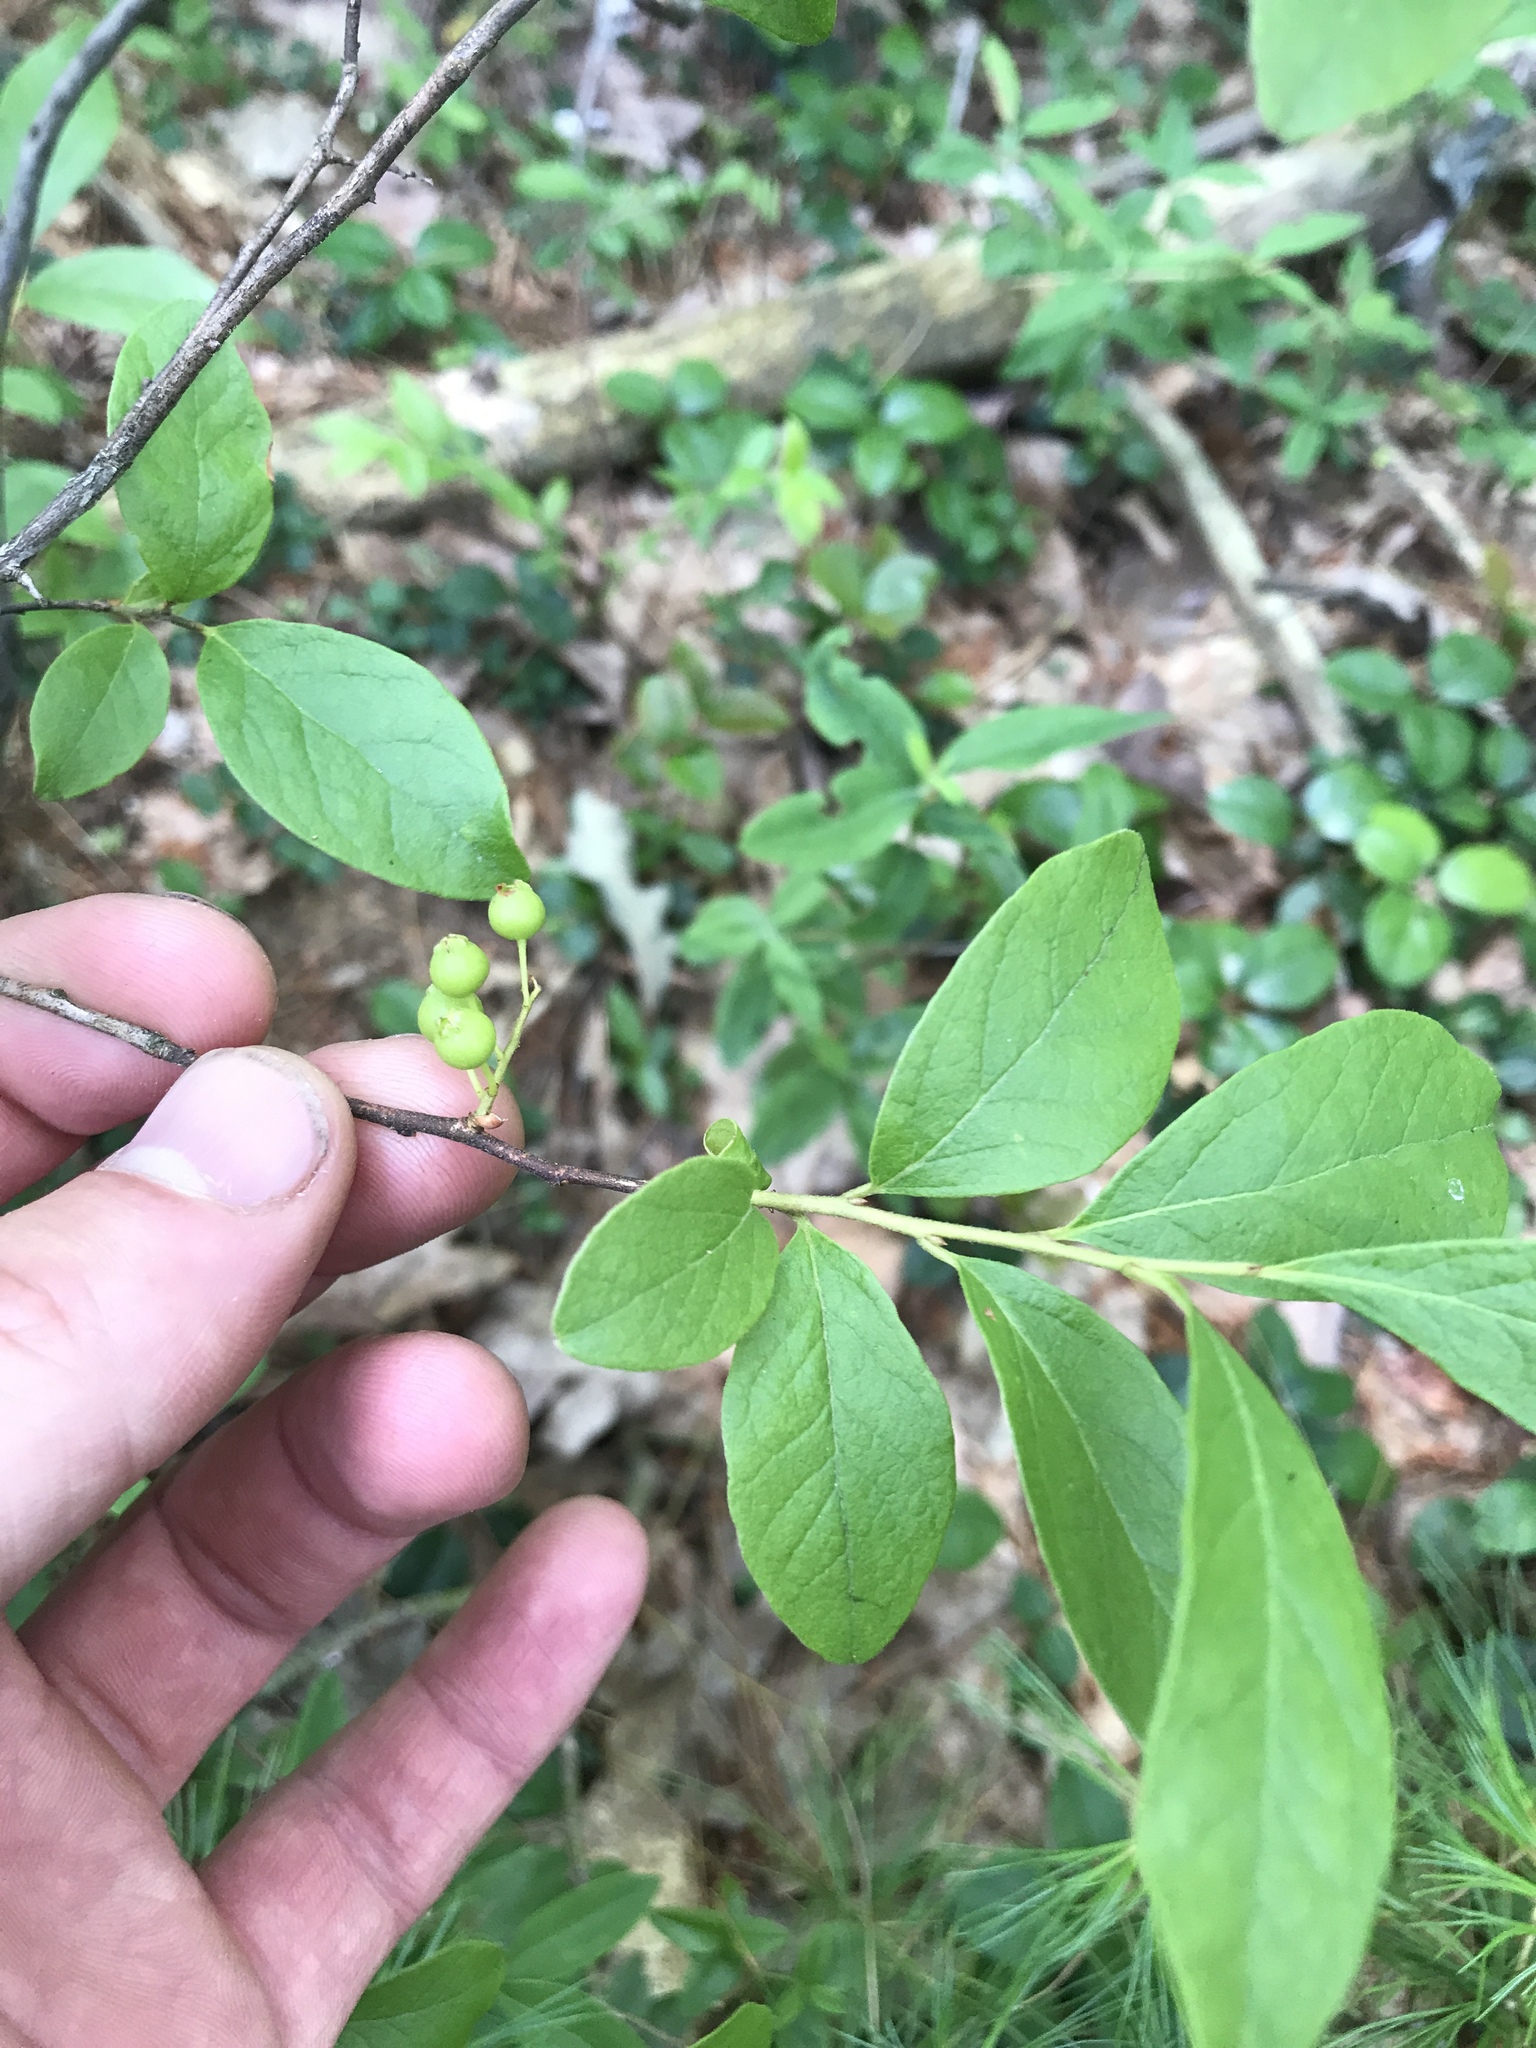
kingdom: Plantae
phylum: Tracheophyta
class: Magnoliopsida
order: Ericales
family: Ericaceae
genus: Gaylussacia
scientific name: Gaylussacia baccata
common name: Black huckleberry
